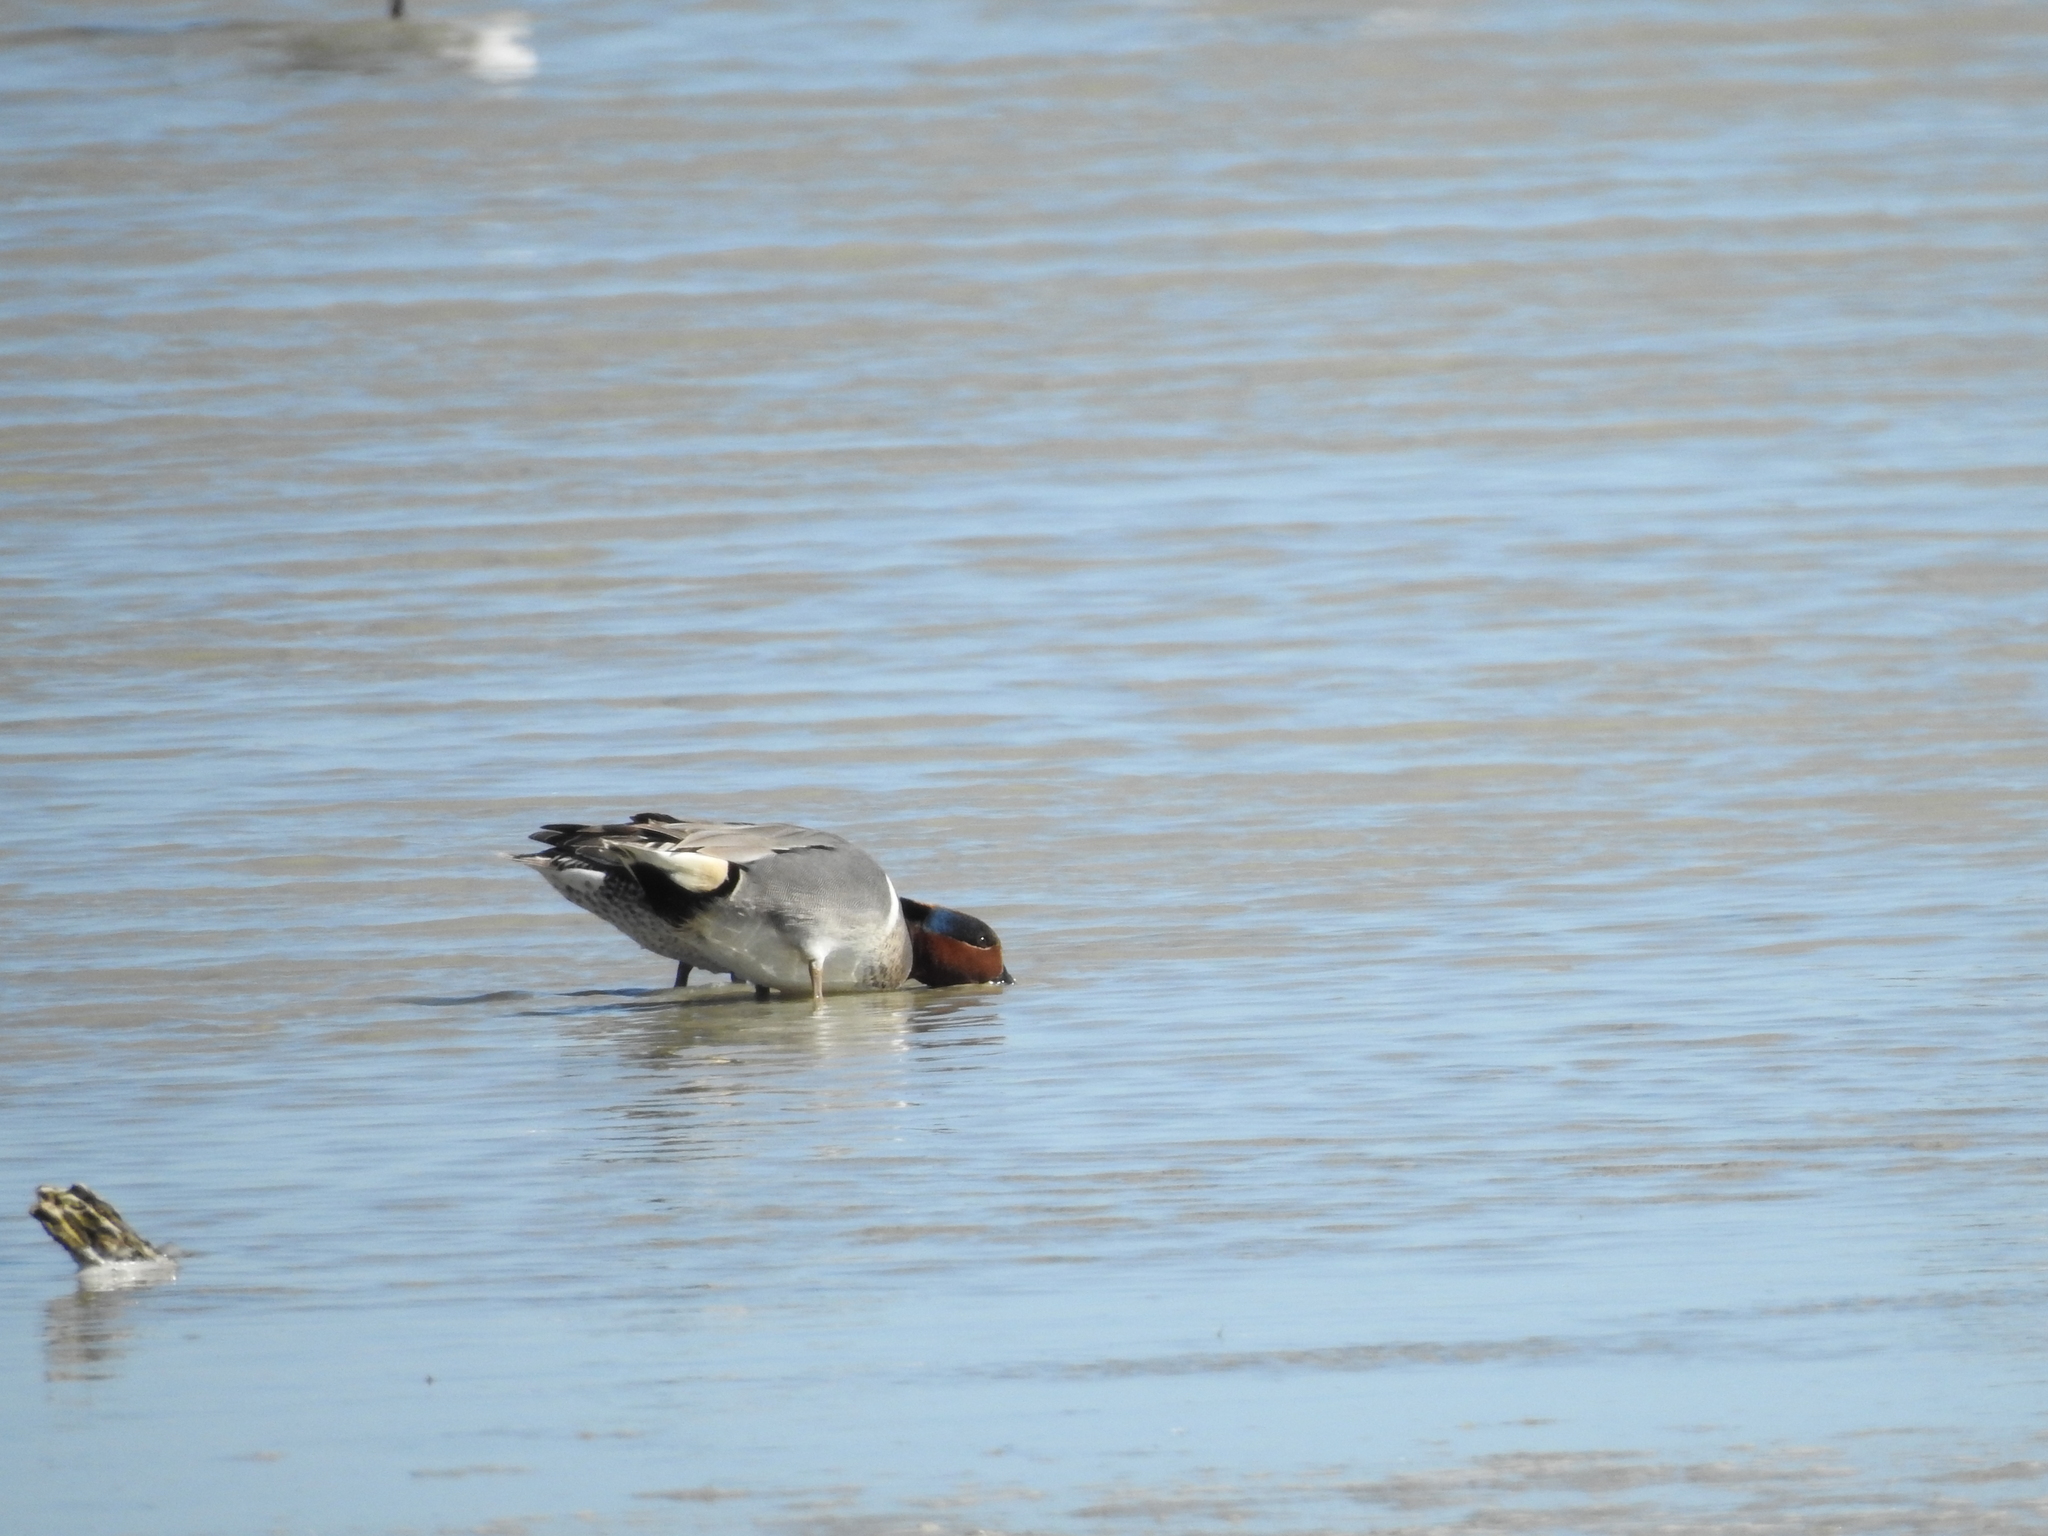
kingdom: Animalia
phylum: Chordata
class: Aves
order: Anseriformes
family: Anatidae
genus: Anas
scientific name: Anas crecca
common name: Eurasian teal
